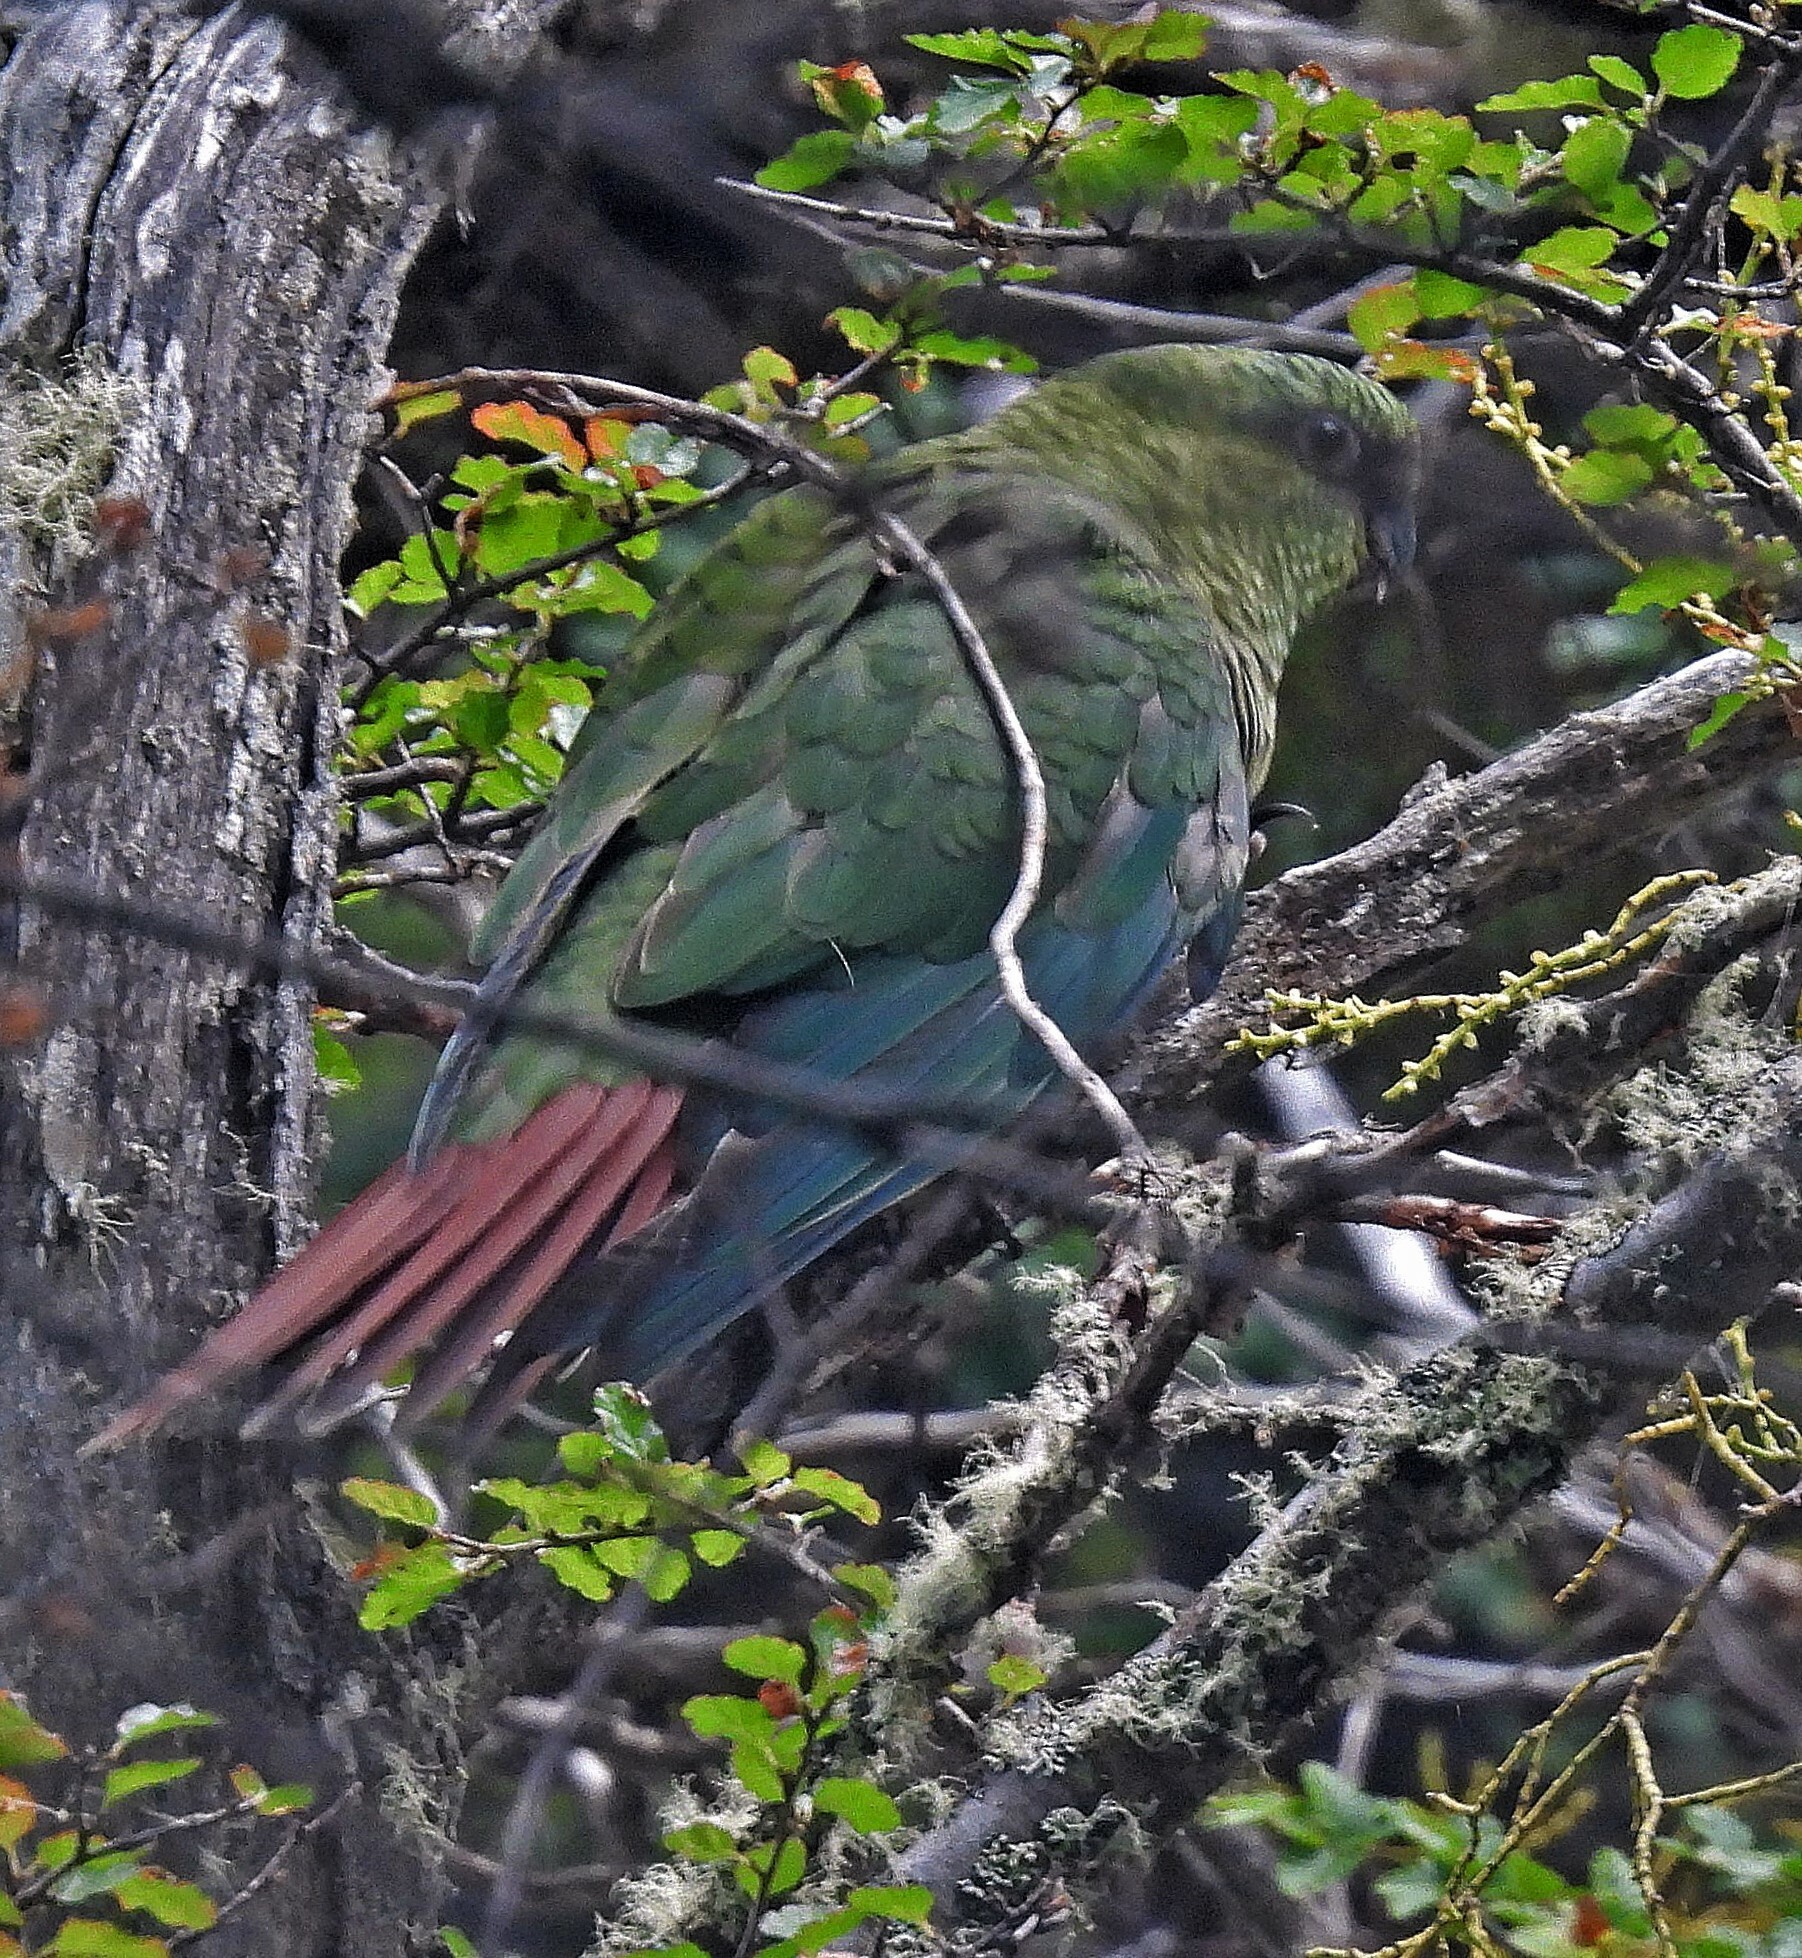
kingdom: Animalia
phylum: Chordata
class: Aves
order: Psittaciformes
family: Psittacidae
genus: Enicognathus
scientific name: Enicognathus ferrugineus
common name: Austral parakeet
